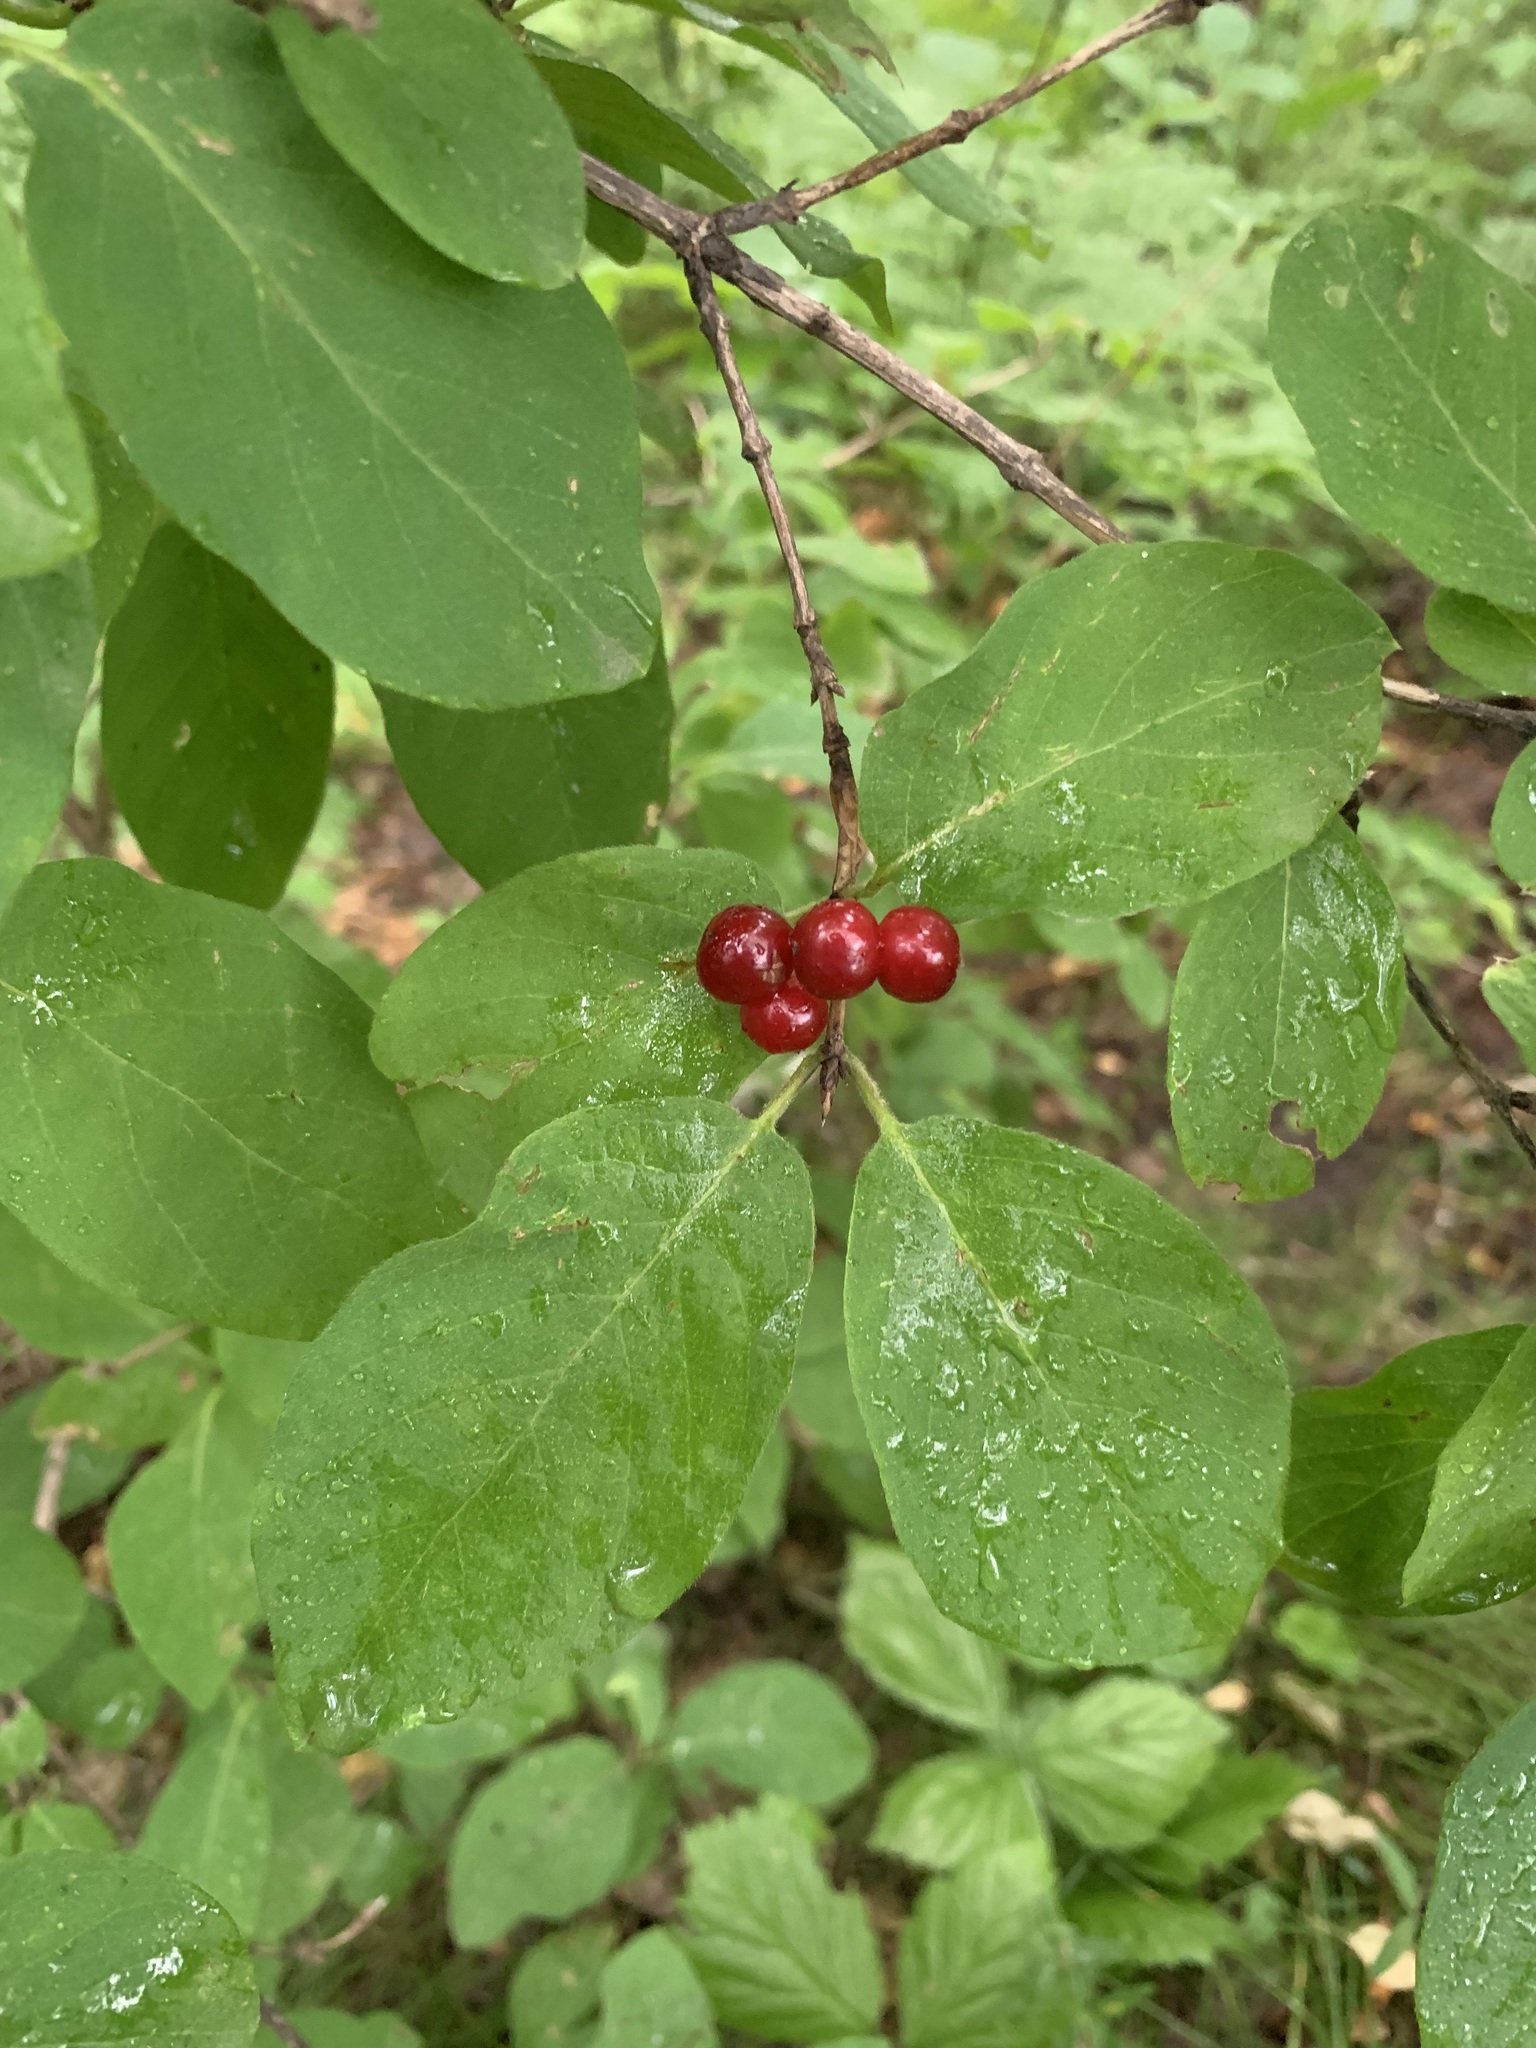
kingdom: Plantae
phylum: Tracheophyta
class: Magnoliopsida
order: Dipsacales
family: Caprifoliaceae
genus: Lonicera
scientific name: Lonicera xylosteum
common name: Fly honeysuckle
